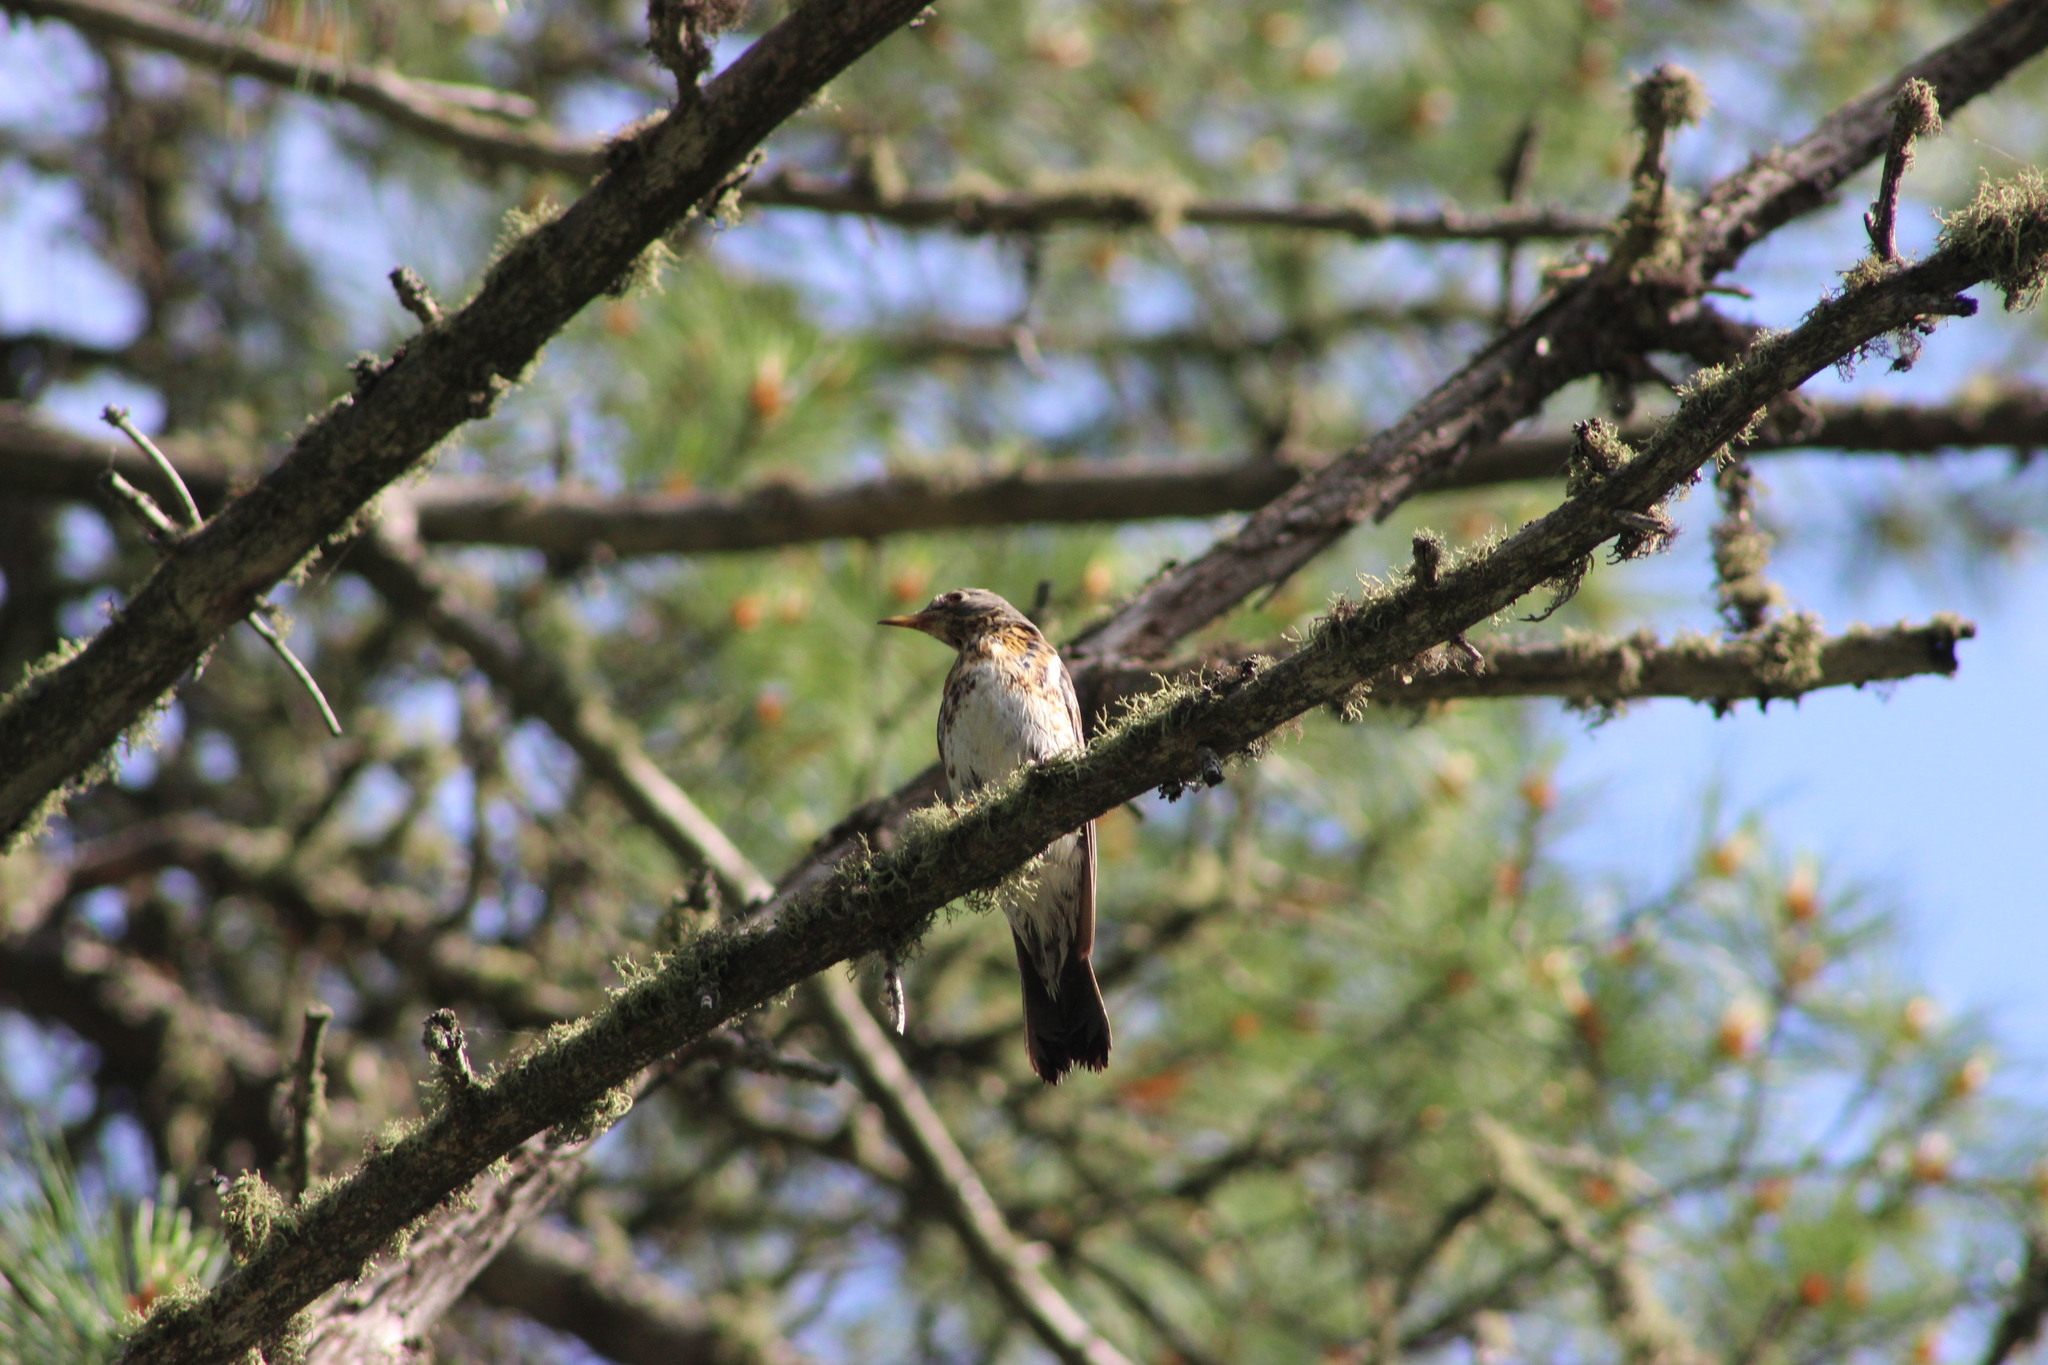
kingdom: Animalia
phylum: Chordata
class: Aves
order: Passeriformes
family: Turdidae
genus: Turdus
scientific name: Turdus pilaris
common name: Fieldfare
